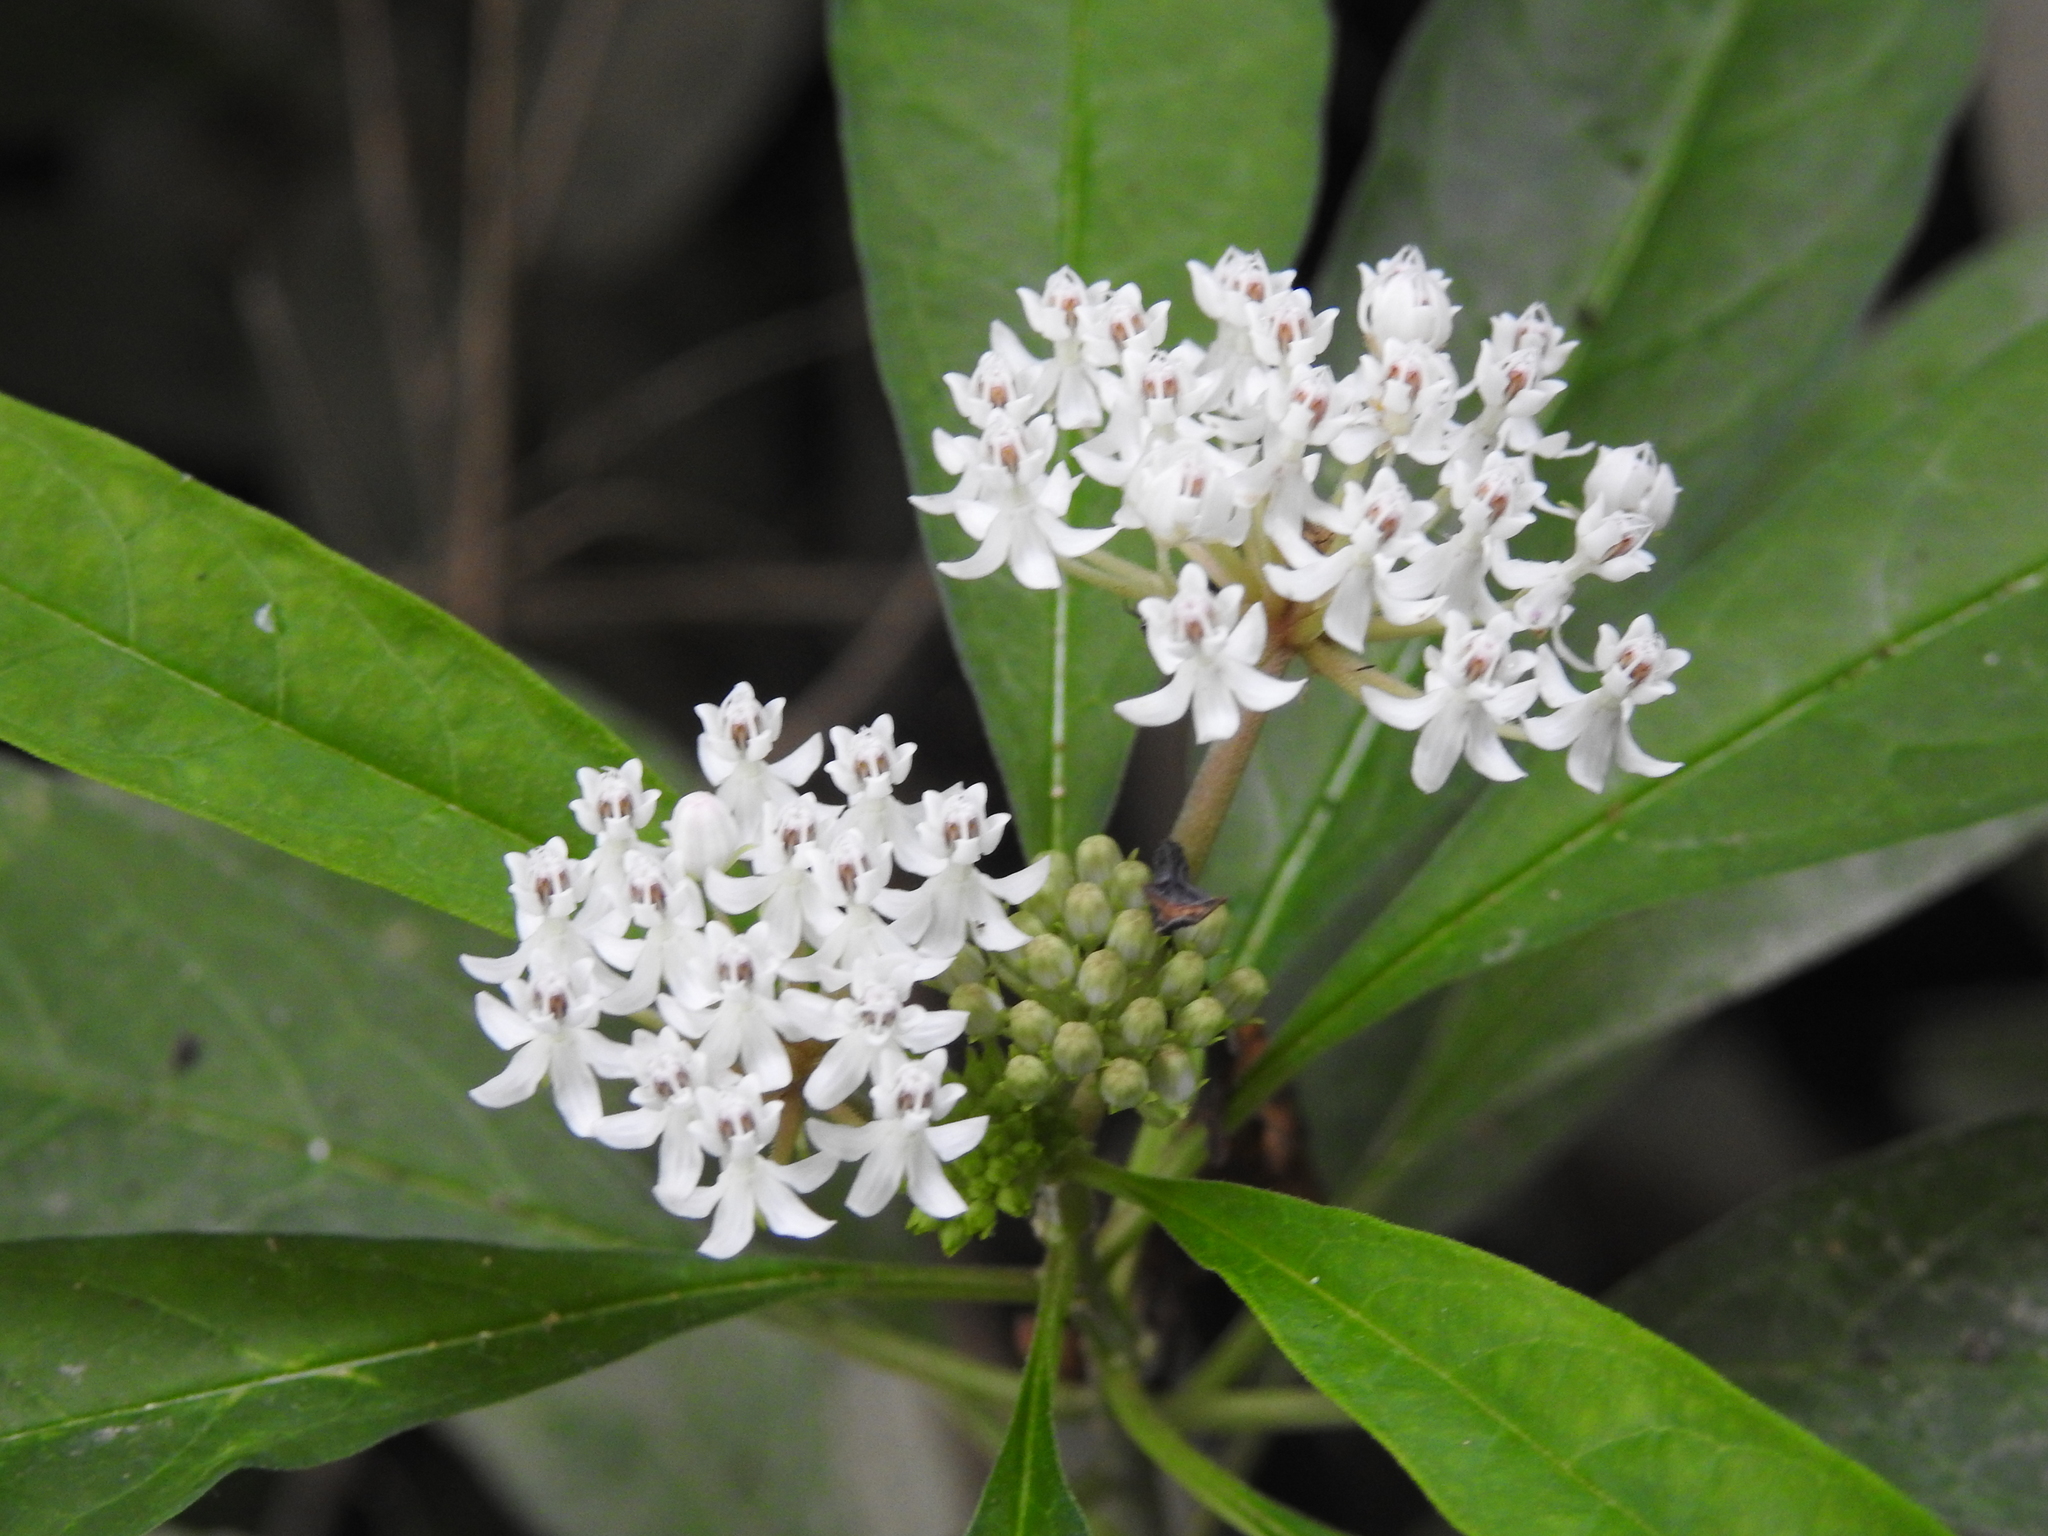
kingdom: Plantae
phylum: Tracheophyta
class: Magnoliopsida
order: Gentianales
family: Apocynaceae
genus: Asclepias
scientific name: Asclepias perennis
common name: Smooth-seed milkweed
